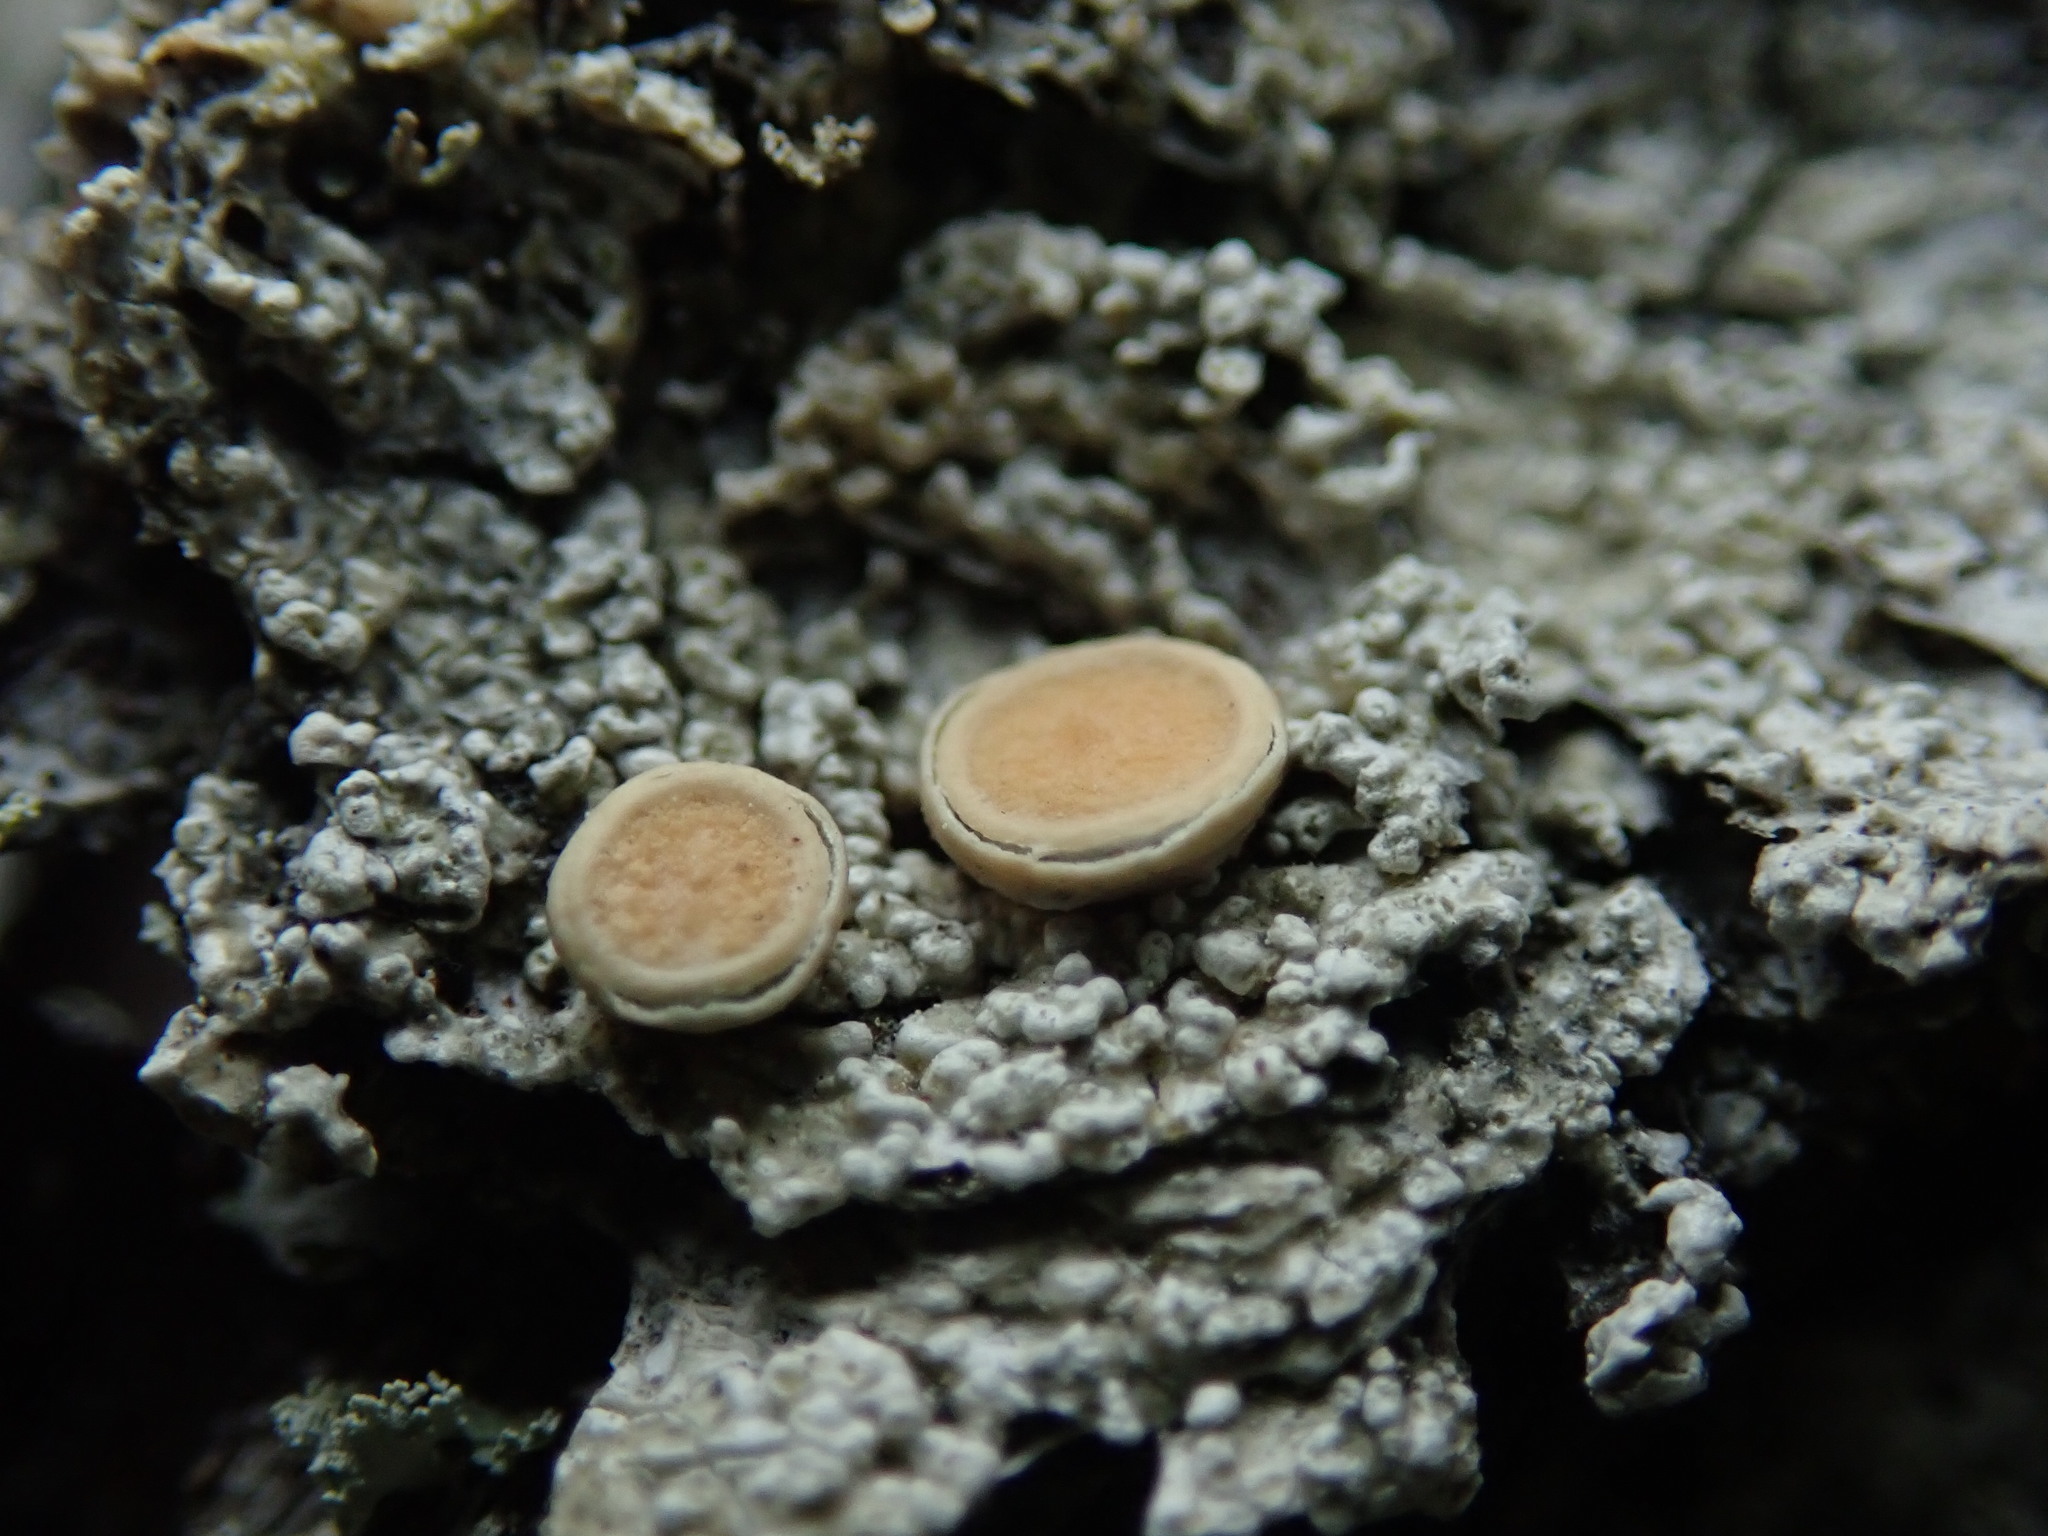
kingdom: Fungi
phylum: Ascomycota
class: Lecanoromycetes
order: Pertusariales
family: Ochrolechiaceae
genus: Ochrolechia
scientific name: Ochrolechia oregonensis
